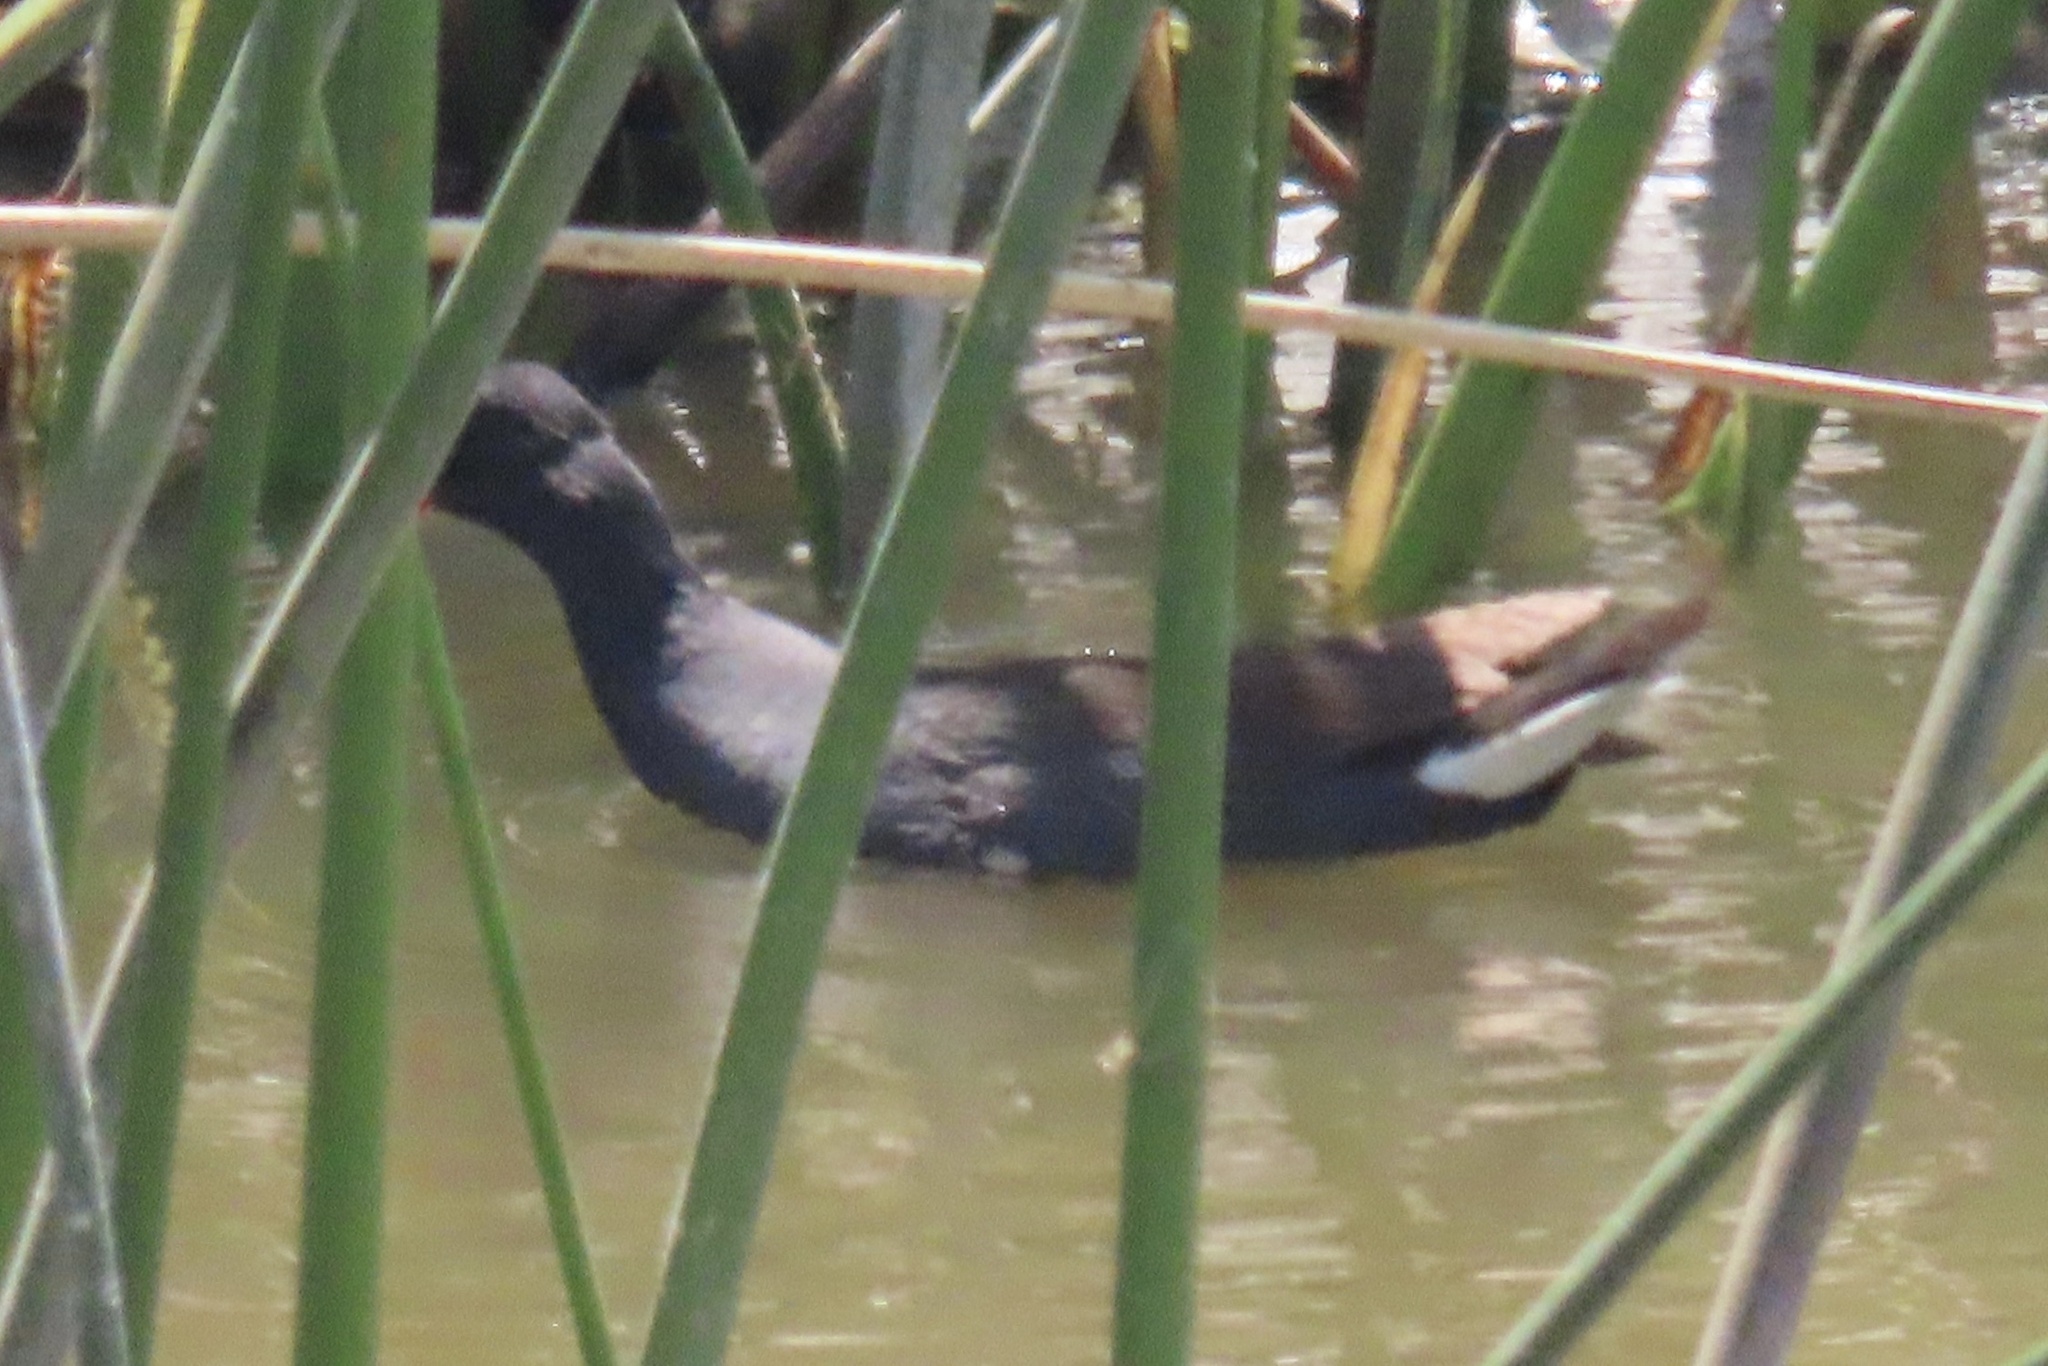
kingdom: Animalia
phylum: Chordata
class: Aves
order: Gruiformes
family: Rallidae
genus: Gallinula
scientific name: Gallinula chloropus
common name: Common moorhen
